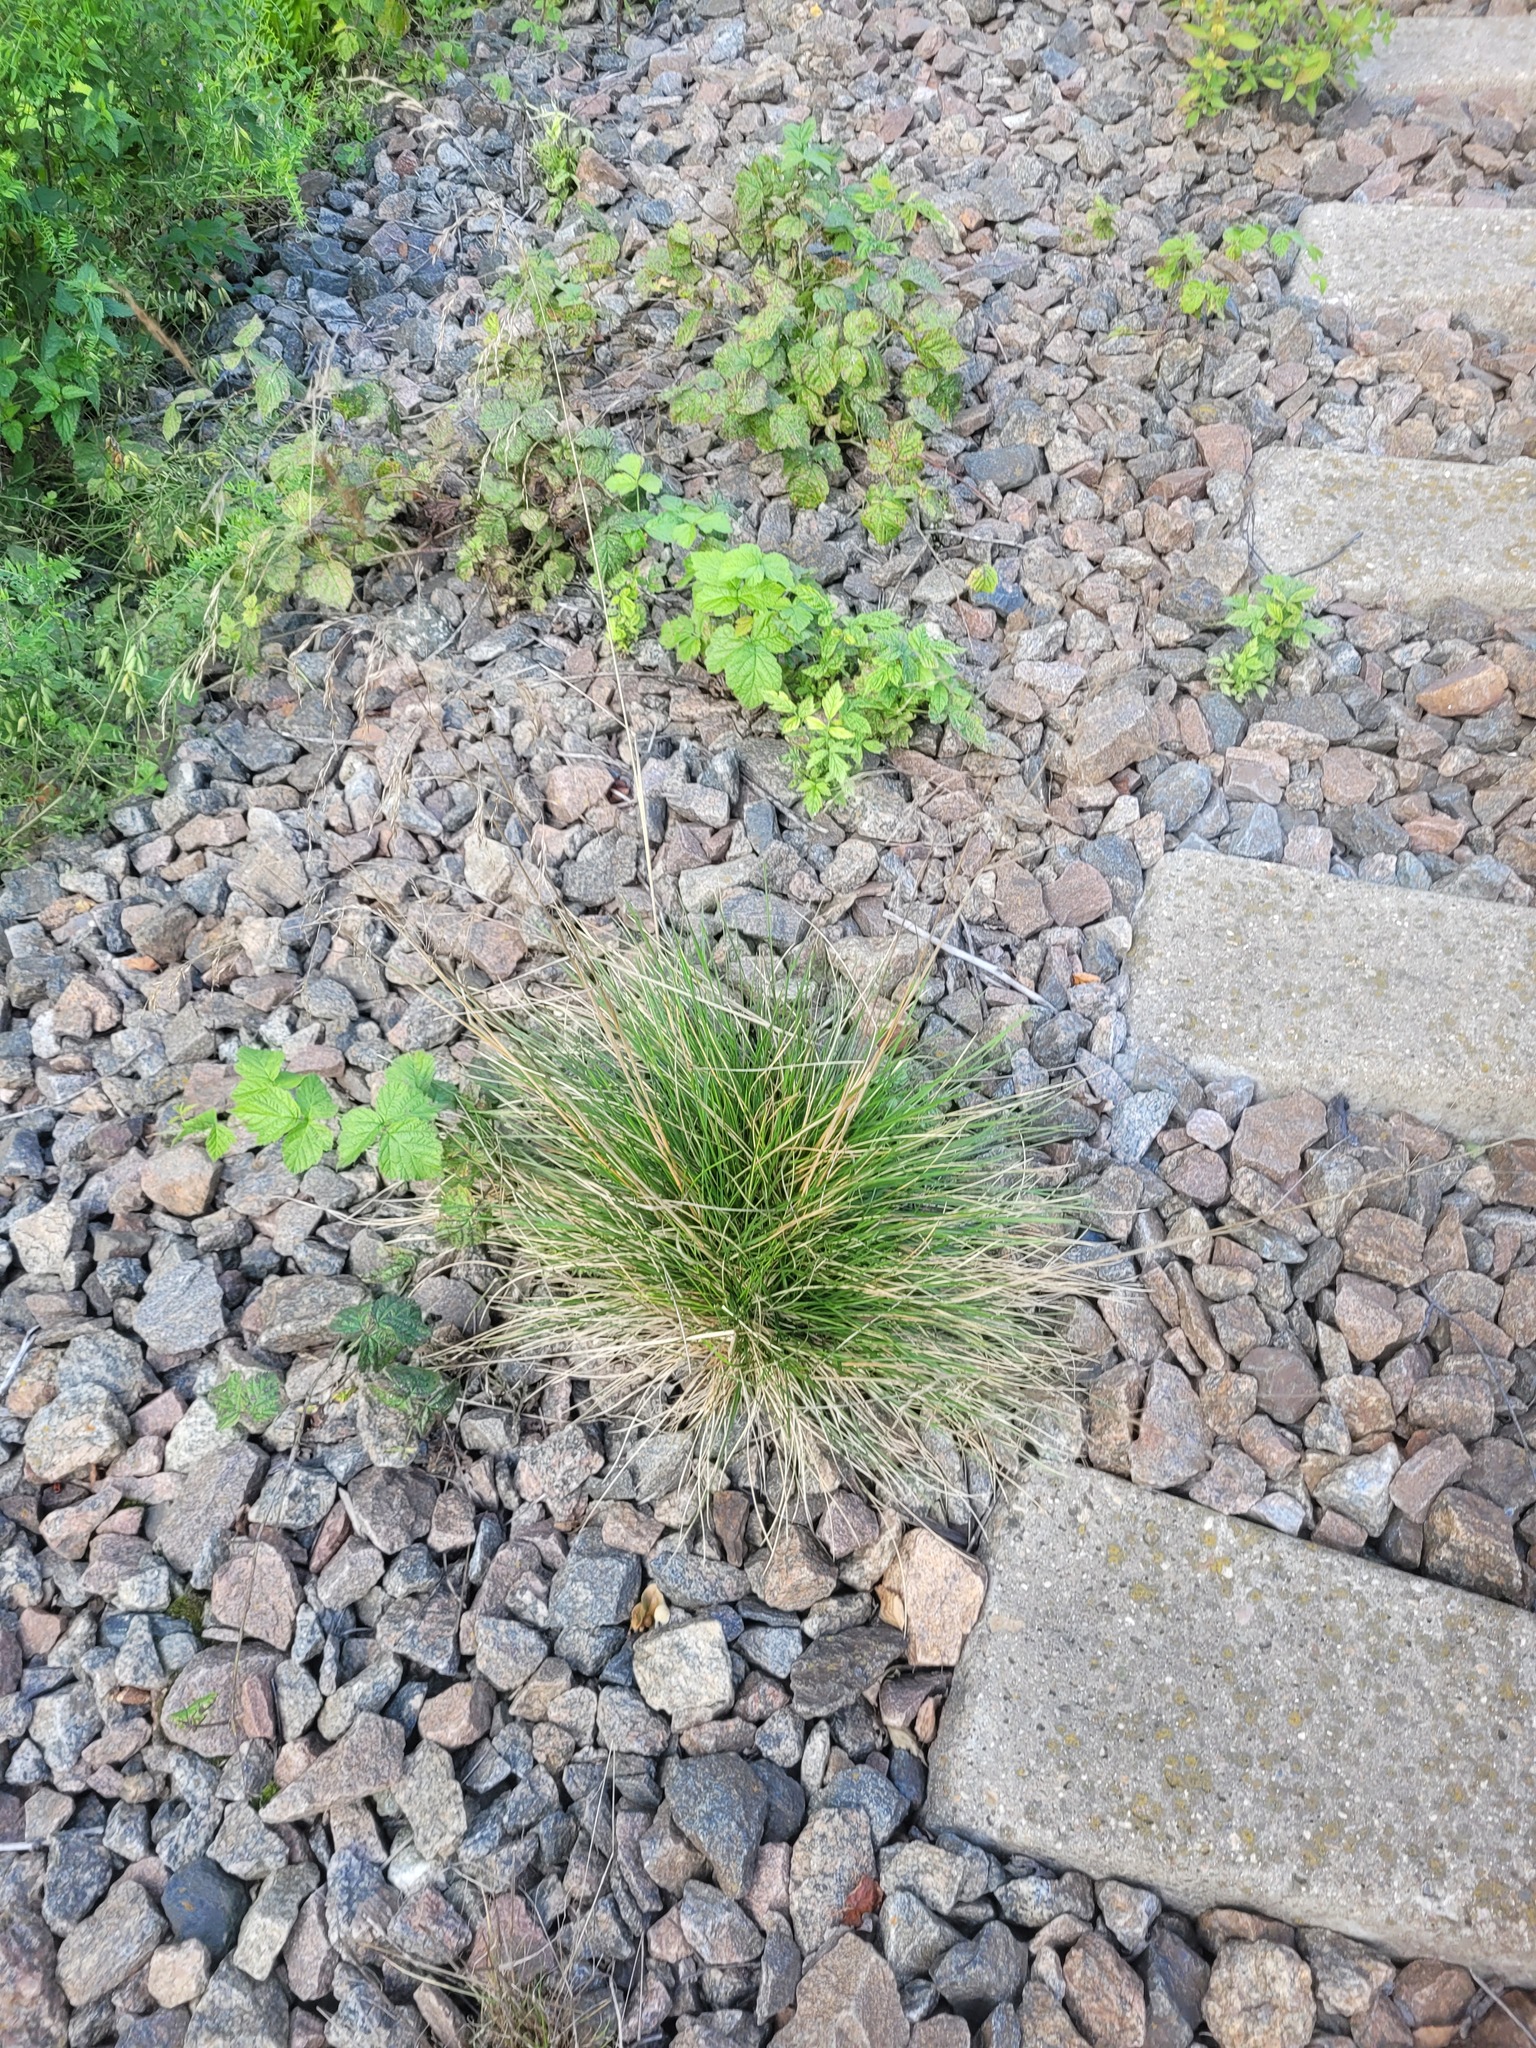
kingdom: Plantae
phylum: Tracheophyta
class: Liliopsida
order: Poales
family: Poaceae
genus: Deschampsia
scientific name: Deschampsia cespitosa
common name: Tufted hair-grass
